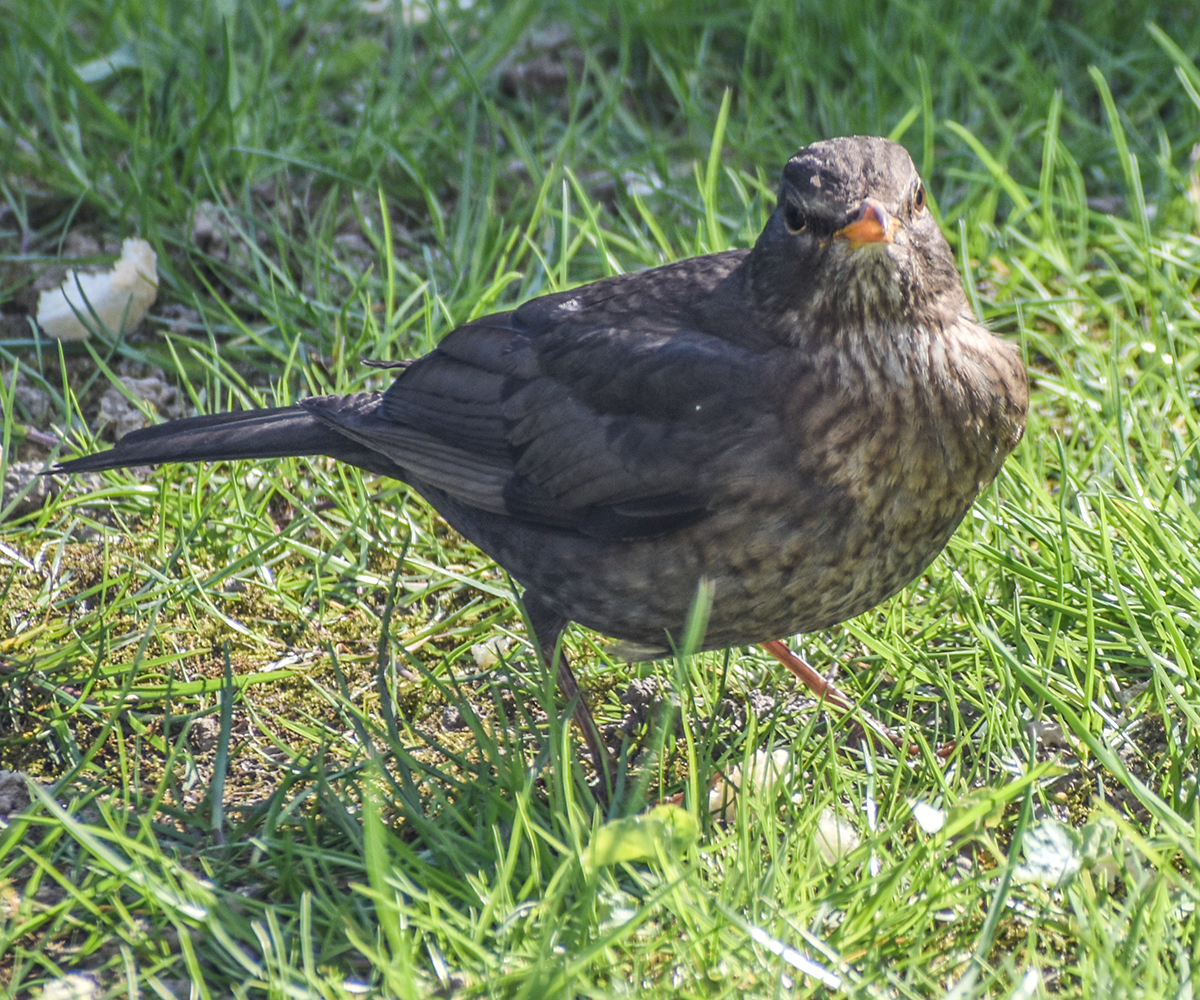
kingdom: Animalia
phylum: Chordata
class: Aves
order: Passeriformes
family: Turdidae
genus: Turdus
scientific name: Turdus merula
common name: Common blackbird
